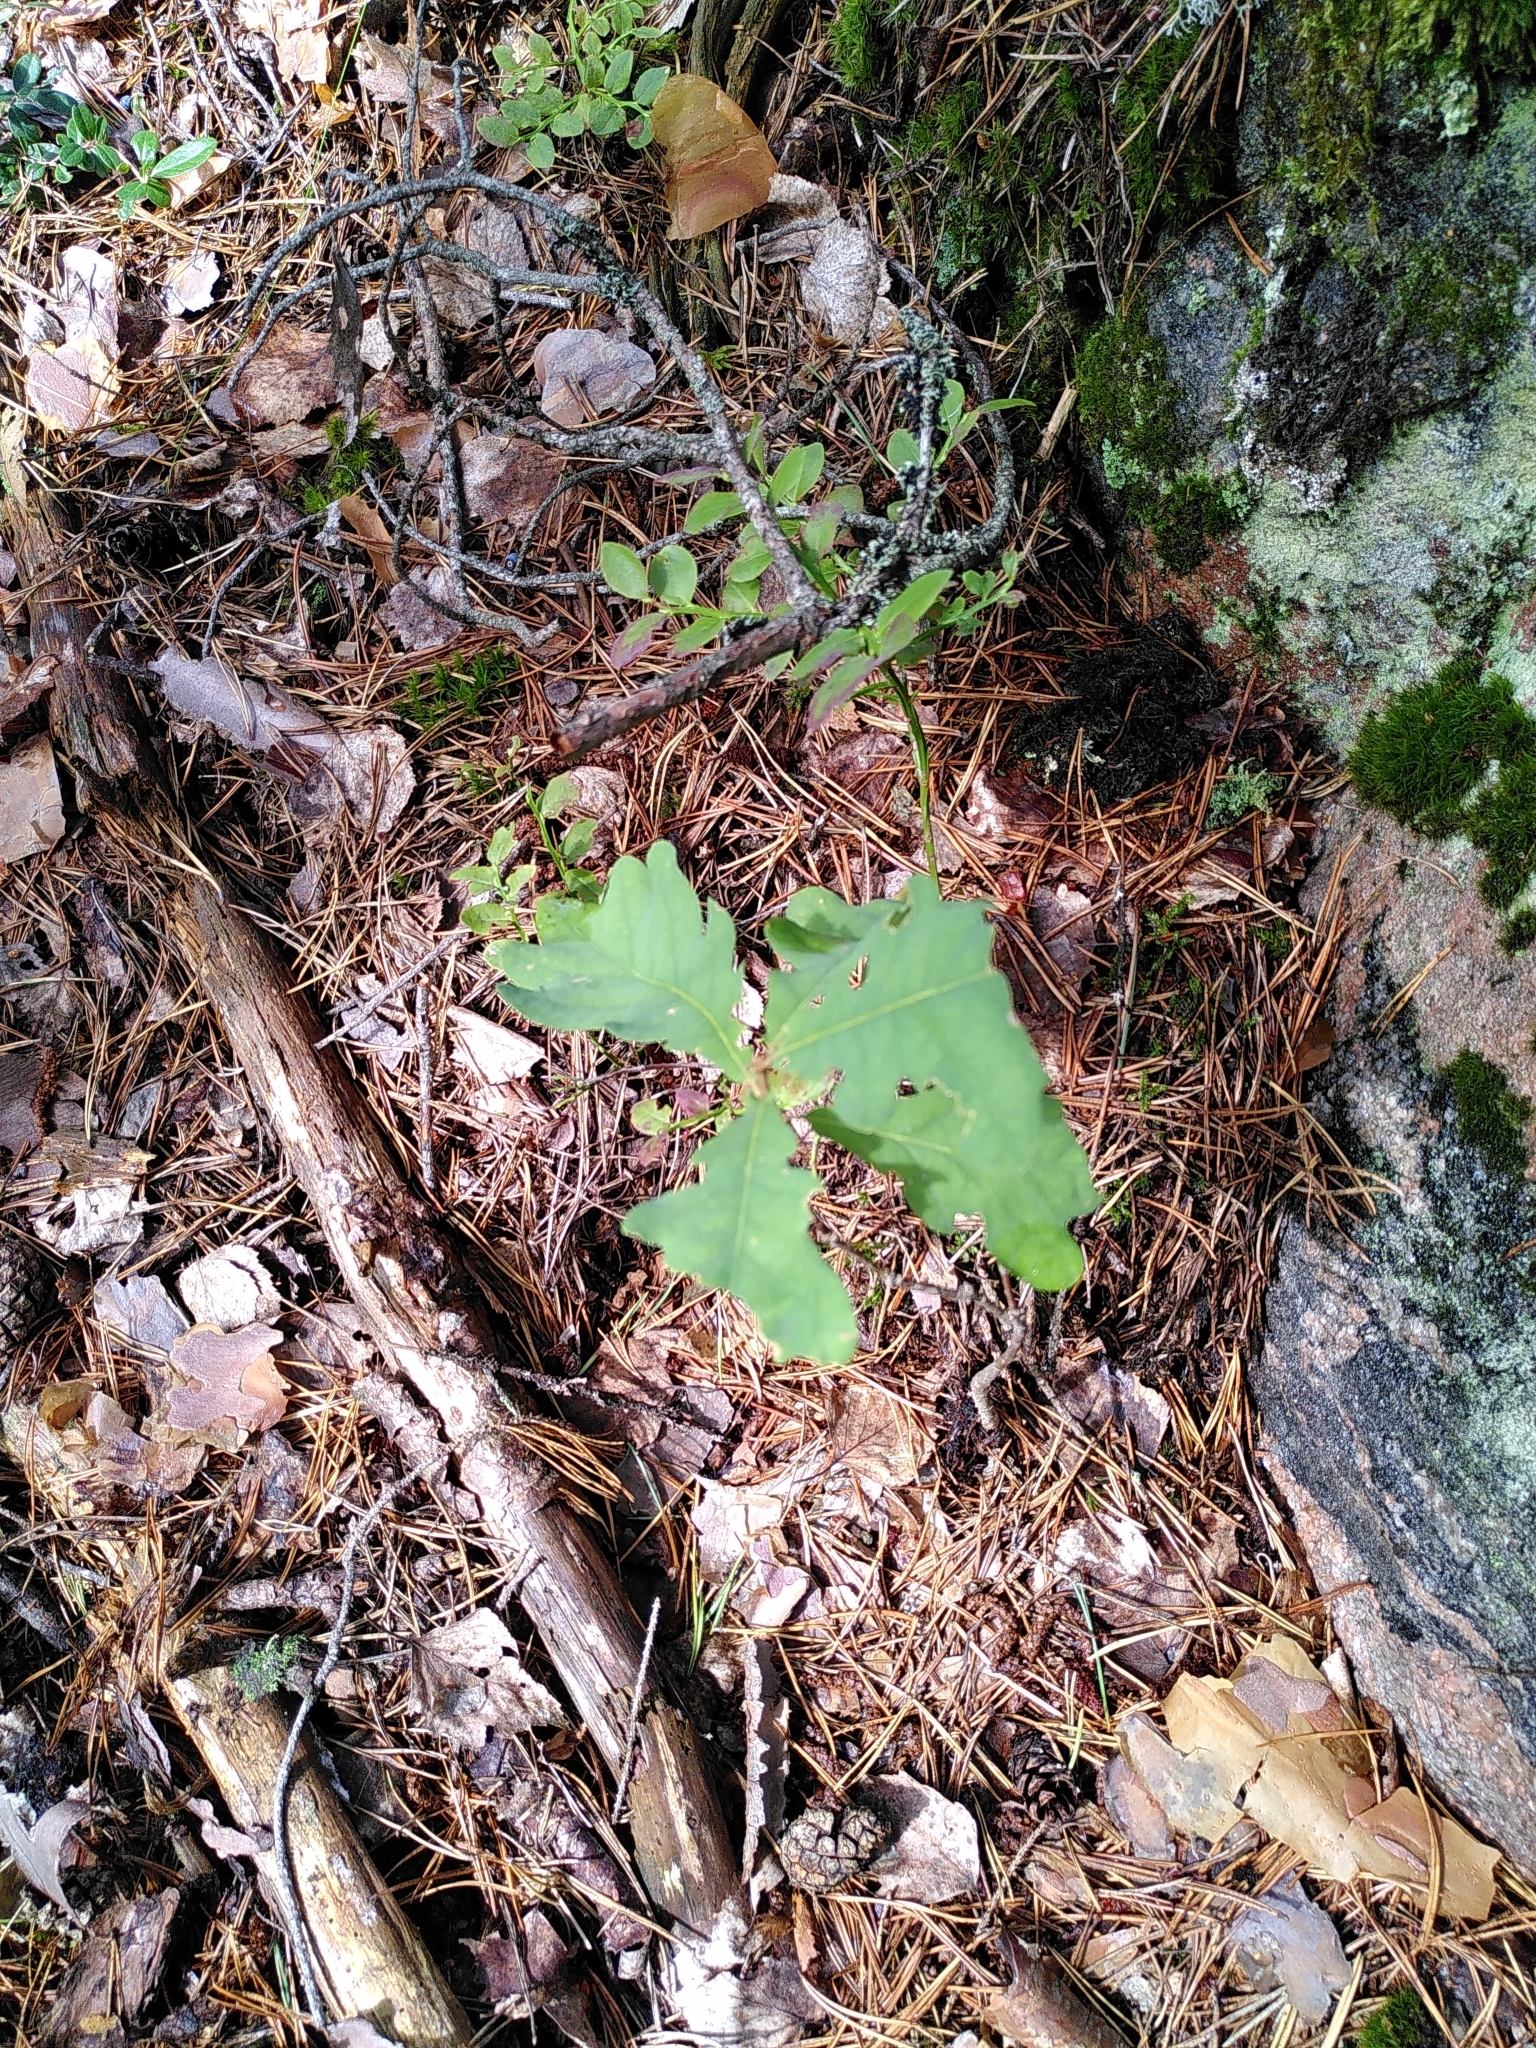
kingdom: Plantae
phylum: Tracheophyta
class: Magnoliopsida
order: Fagales
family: Fagaceae
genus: Quercus
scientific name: Quercus robur
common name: Pedunculate oak
